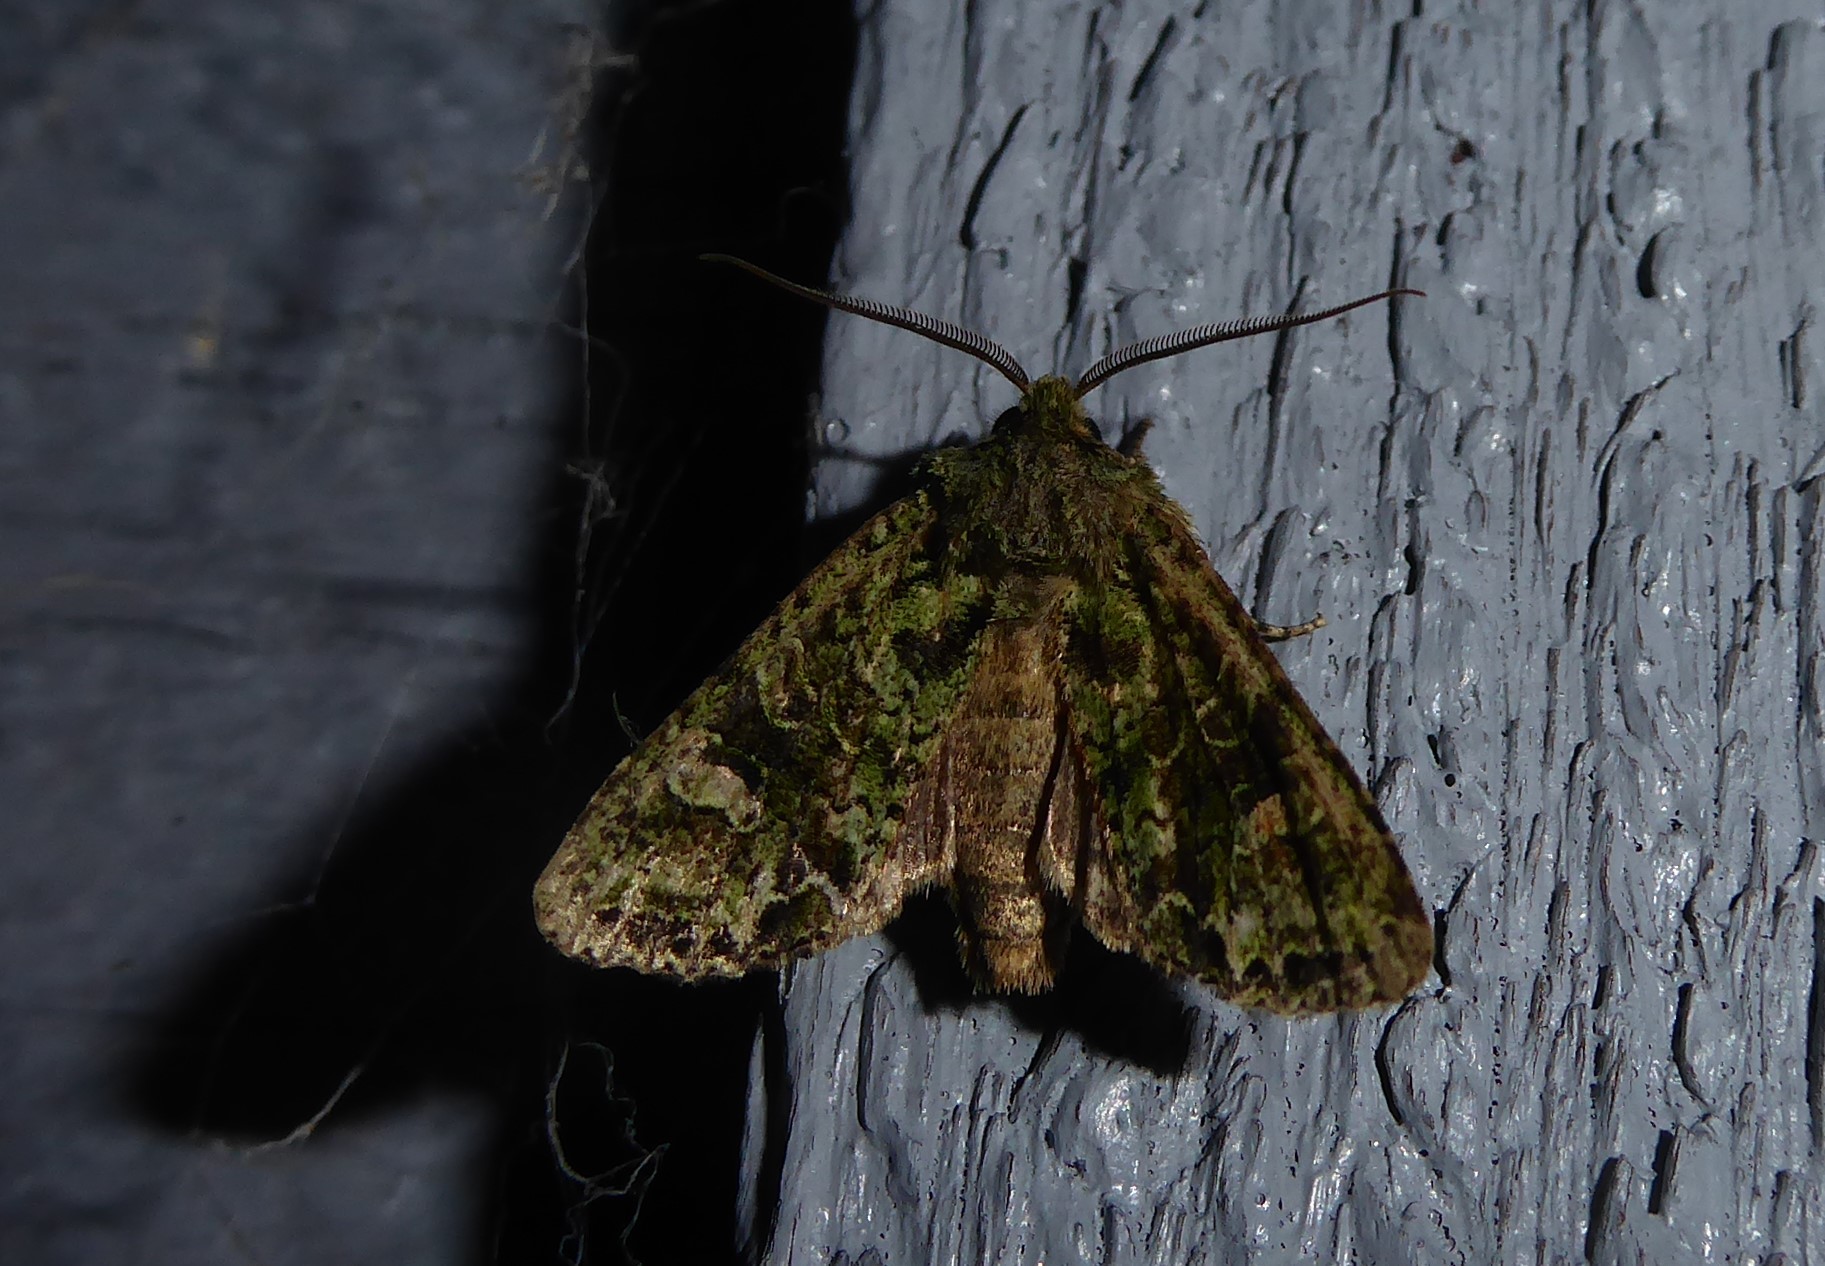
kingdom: Animalia
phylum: Arthropoda
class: Insecta
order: Lepidoptera
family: Noctuidae
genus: Ichneutica
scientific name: Ichneutica
